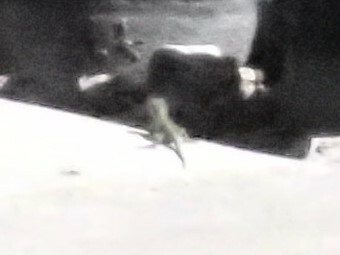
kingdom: Animalia
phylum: Chordata
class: Squamata
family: Dactyloidae
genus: Anolis
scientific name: Anolis carolinensis
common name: Green anole
